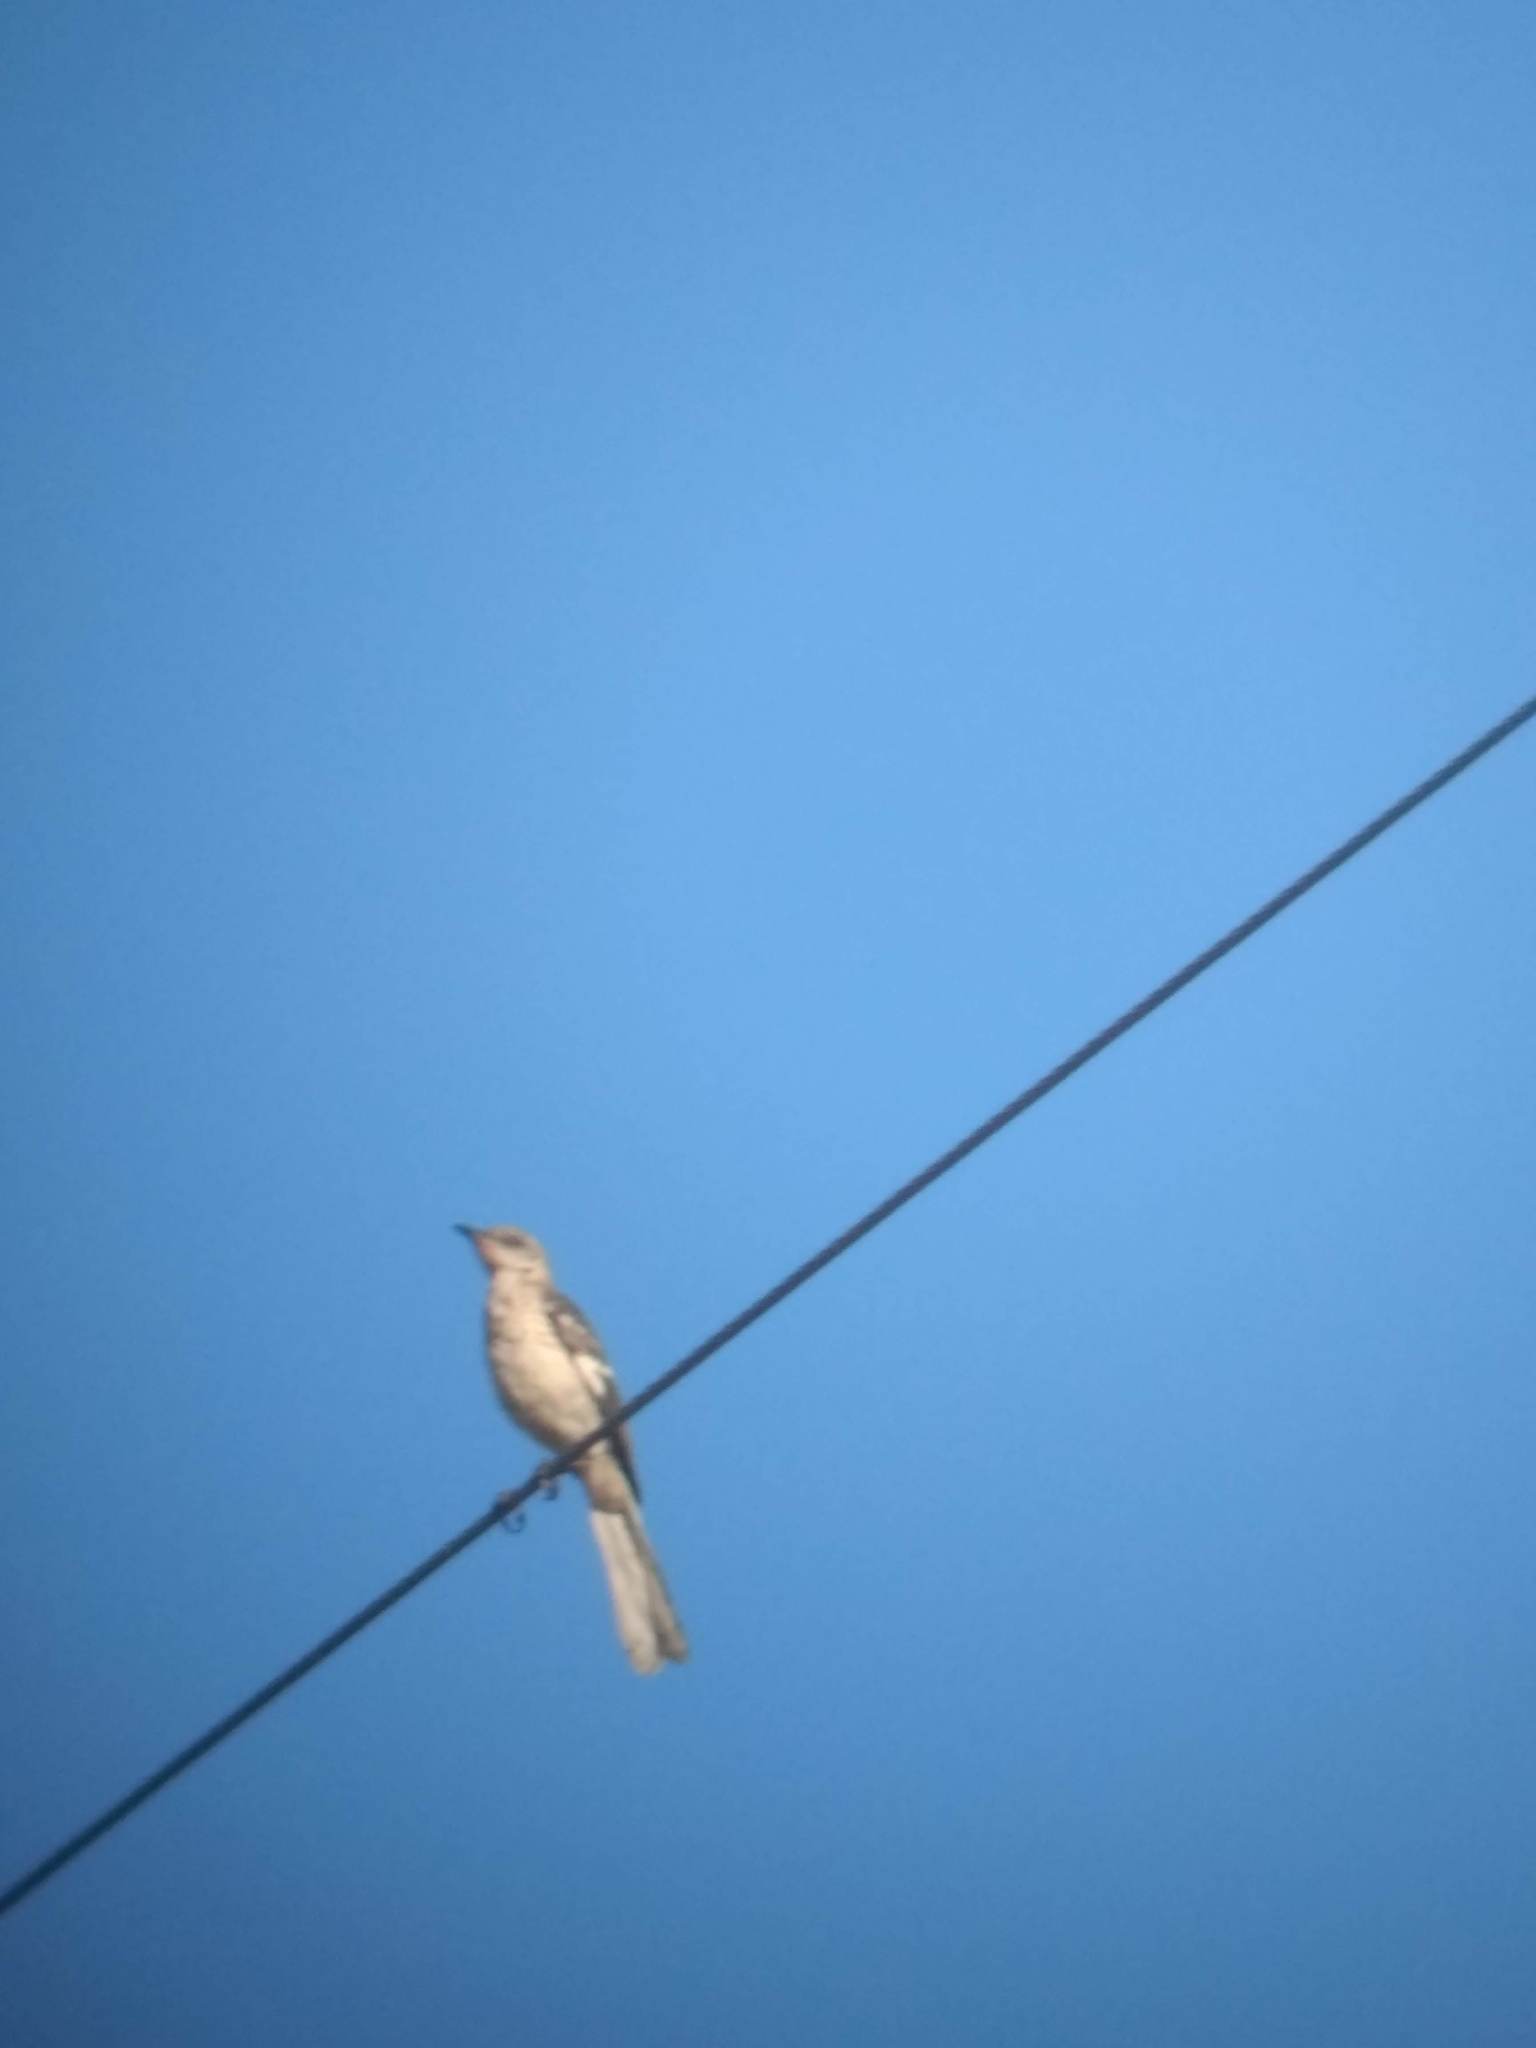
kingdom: Animalia
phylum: Chordata
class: Aves
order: Passeriformes
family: Mimidae
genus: Mimus
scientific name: Mimus polyglottos
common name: Northern mockingbird
